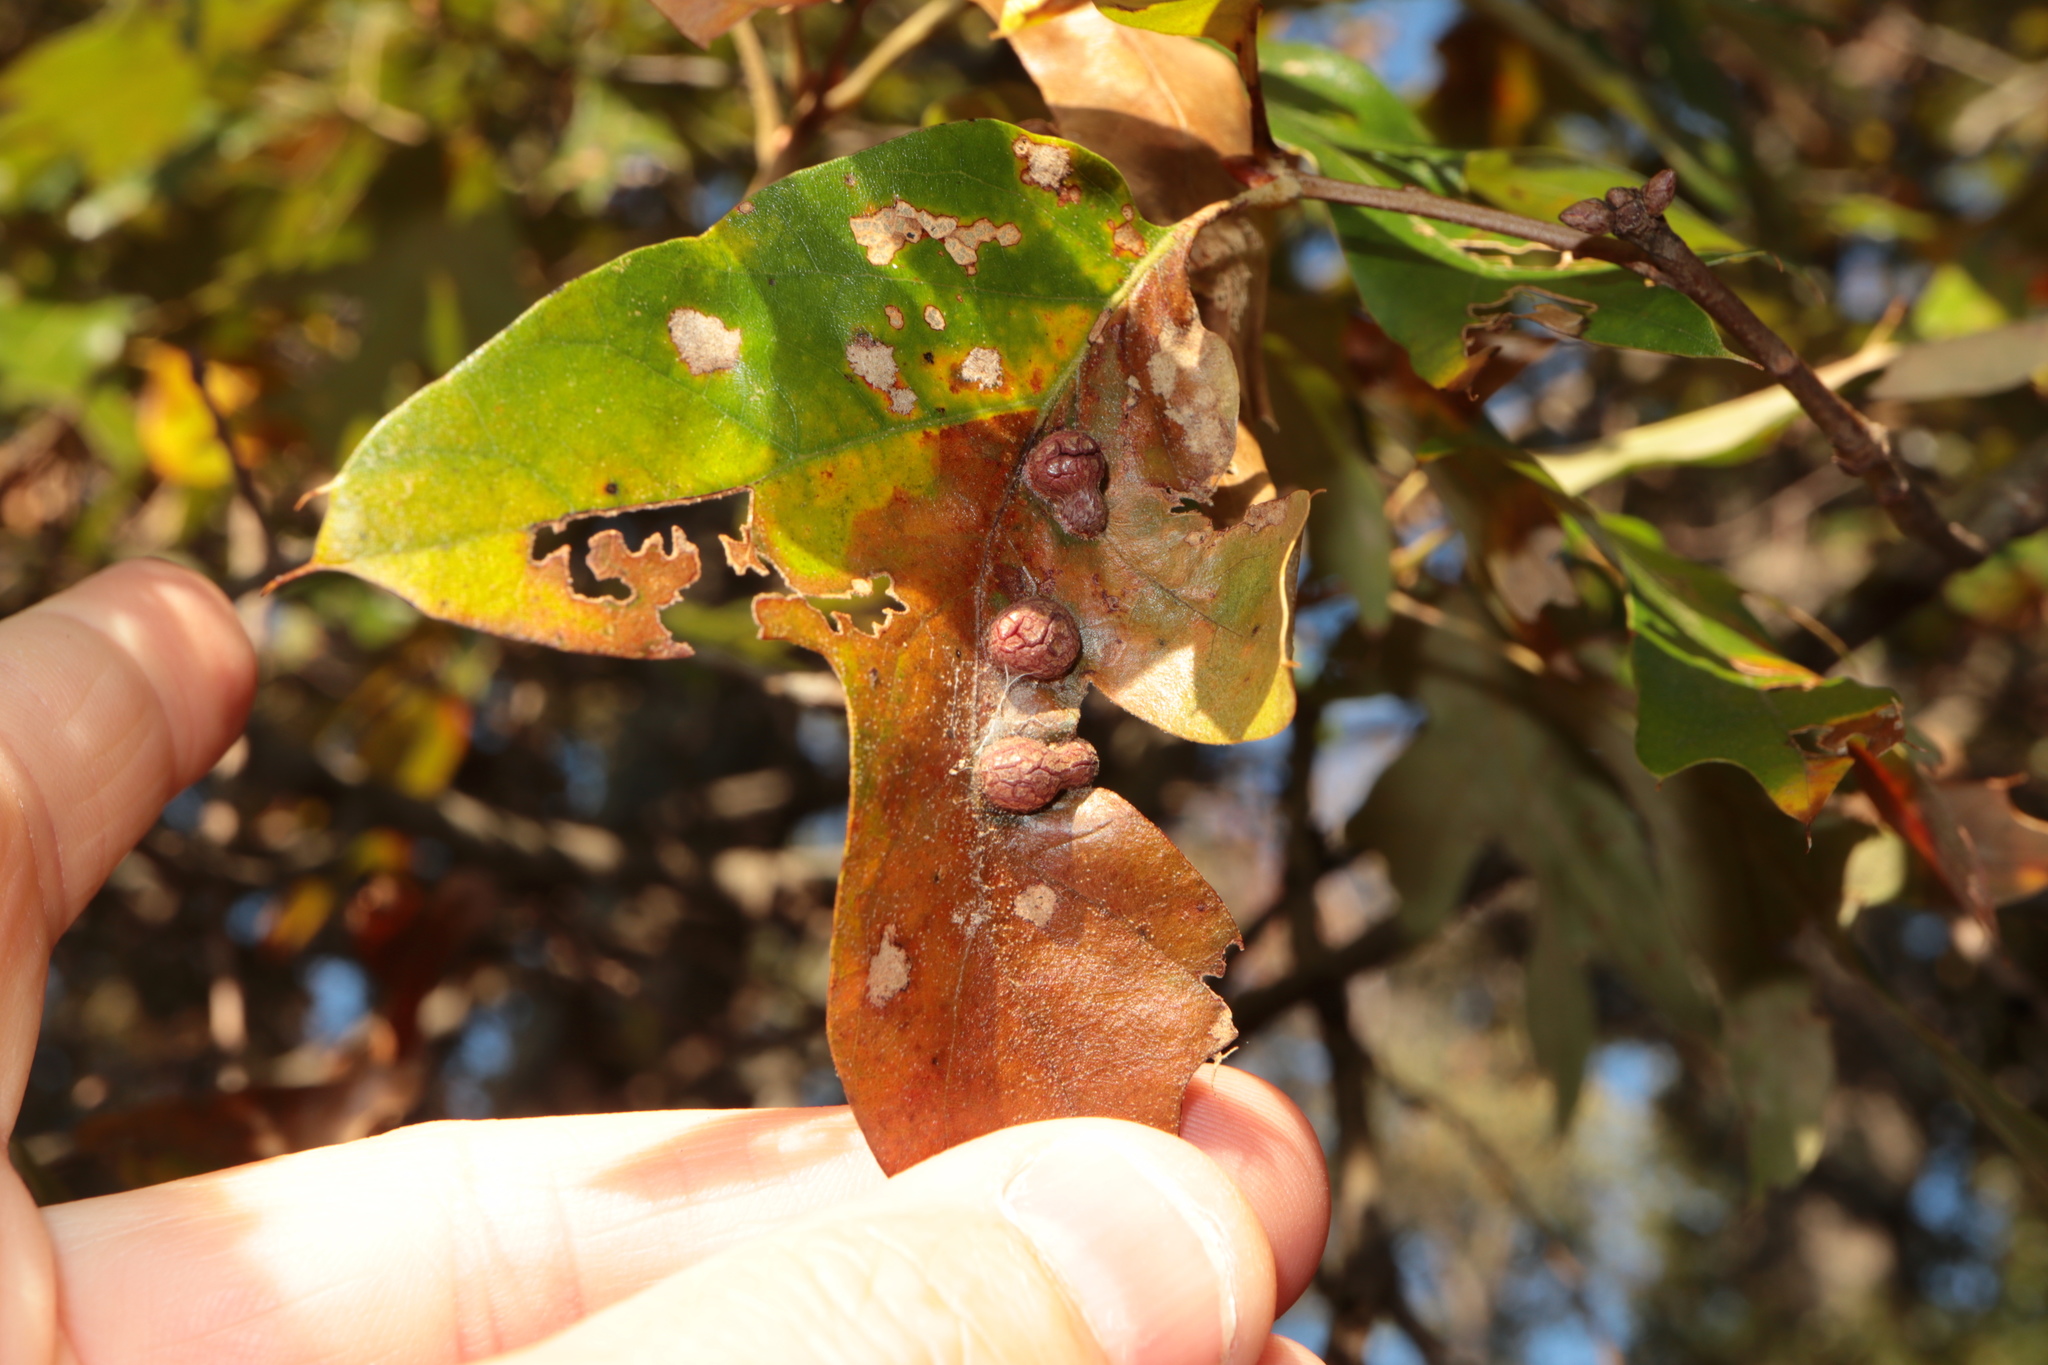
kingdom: Animalia
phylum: Arthropoda
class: Insecta
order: Diptera
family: Cecidomyiidae
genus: Polystepha
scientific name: Polystepha symmetrica
